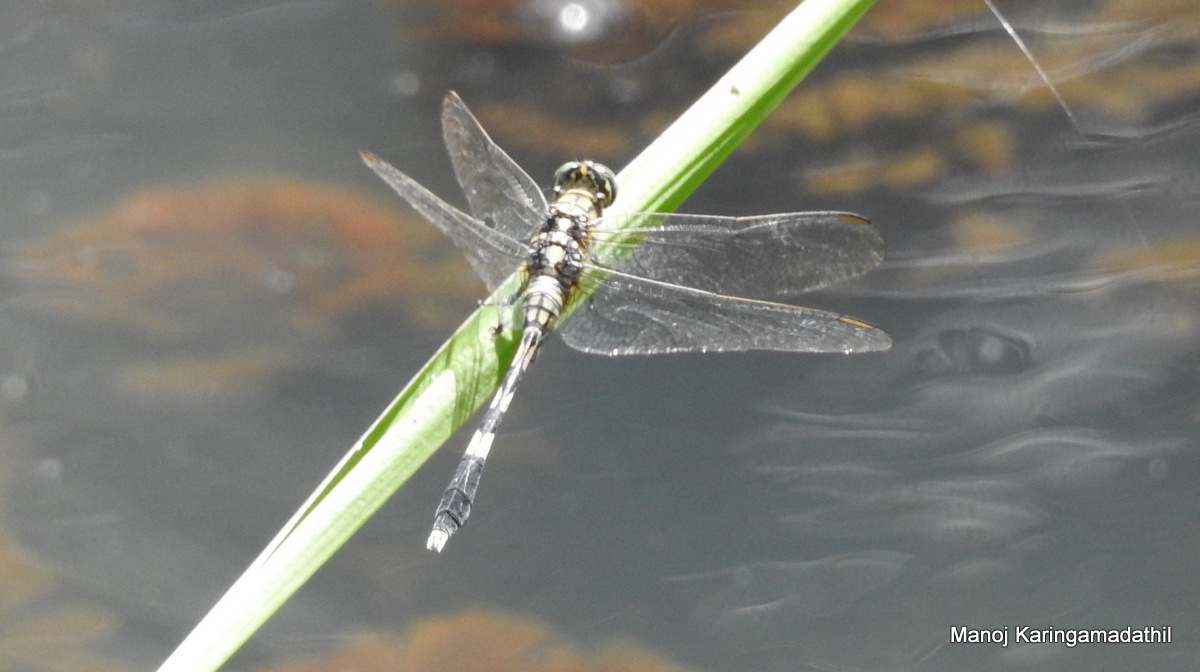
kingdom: Animalia
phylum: Arthropoda
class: Insecta
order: Odonata
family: Libellulidae
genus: Orthetrum
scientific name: Orthetrum sabina
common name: Slender skimmer
